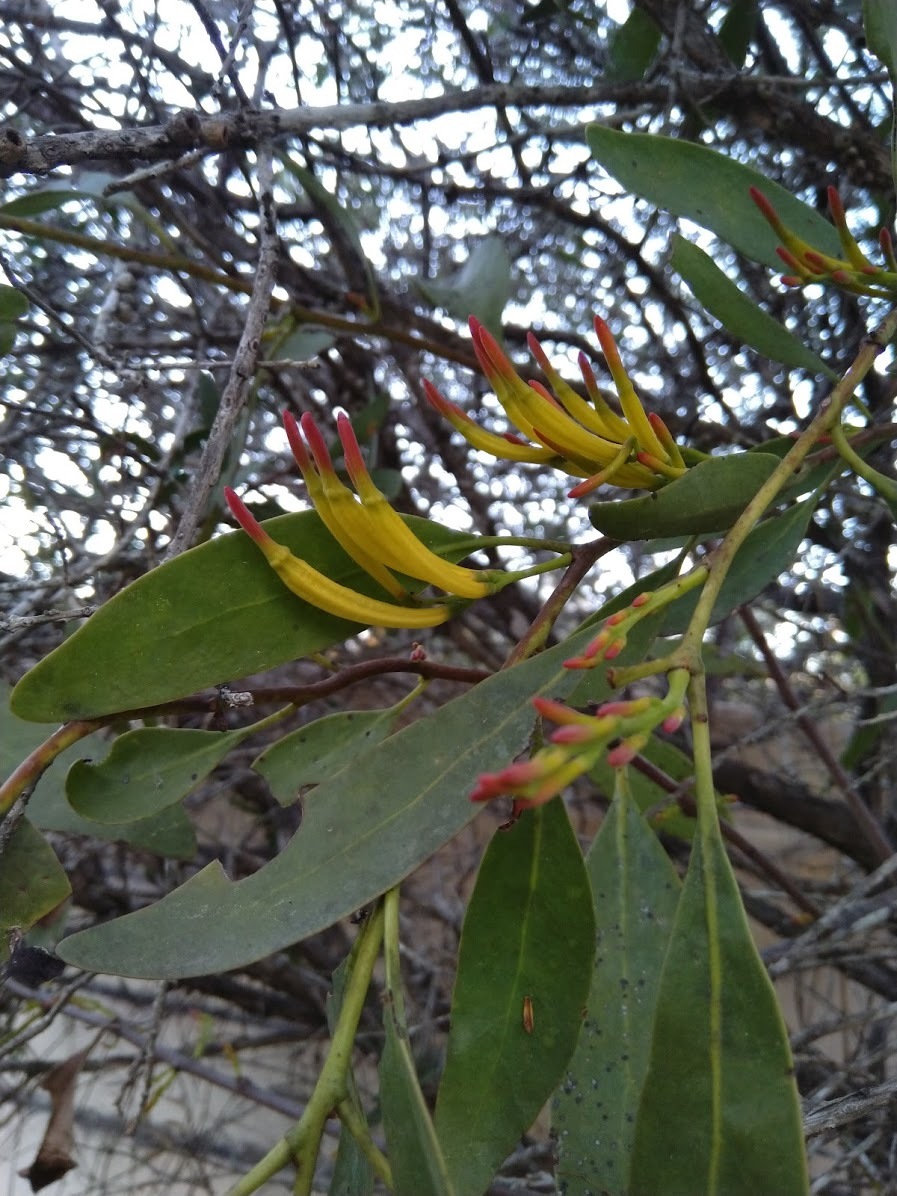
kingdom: Plantae
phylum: Tracheophyta
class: Magnoliopsida
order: Santalales
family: Loranthaceae
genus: Dendrophthoe
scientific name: Dendrophthoe glabrescens
